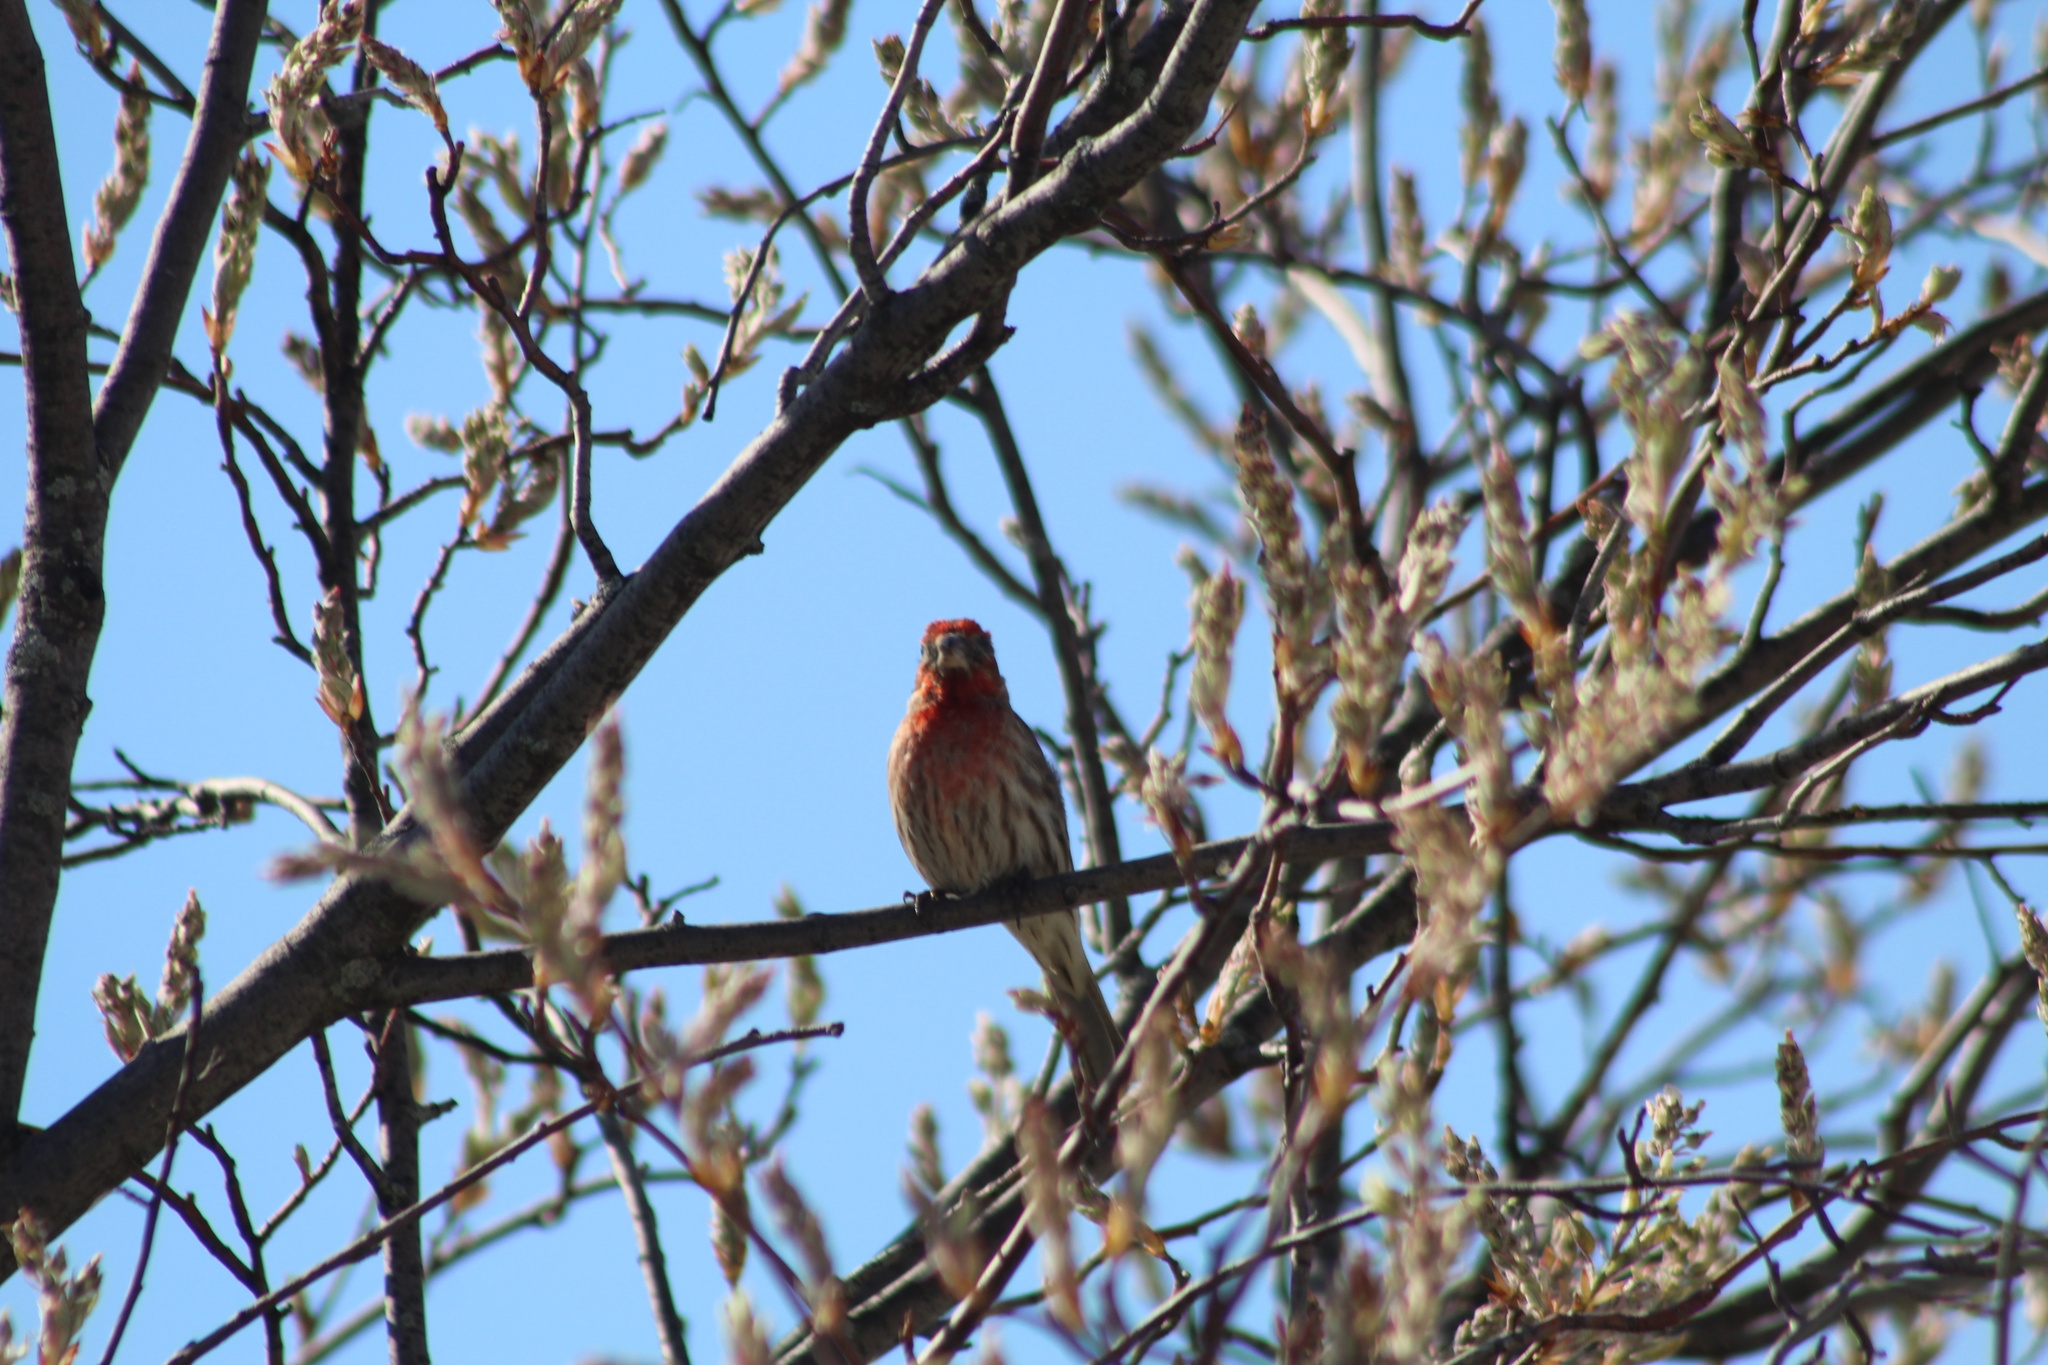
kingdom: Animalia
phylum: Chordata
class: Aves
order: Passeriformes
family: Fringillidae
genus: Haemorhous
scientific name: Haemorhous mexicanus
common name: House finch
